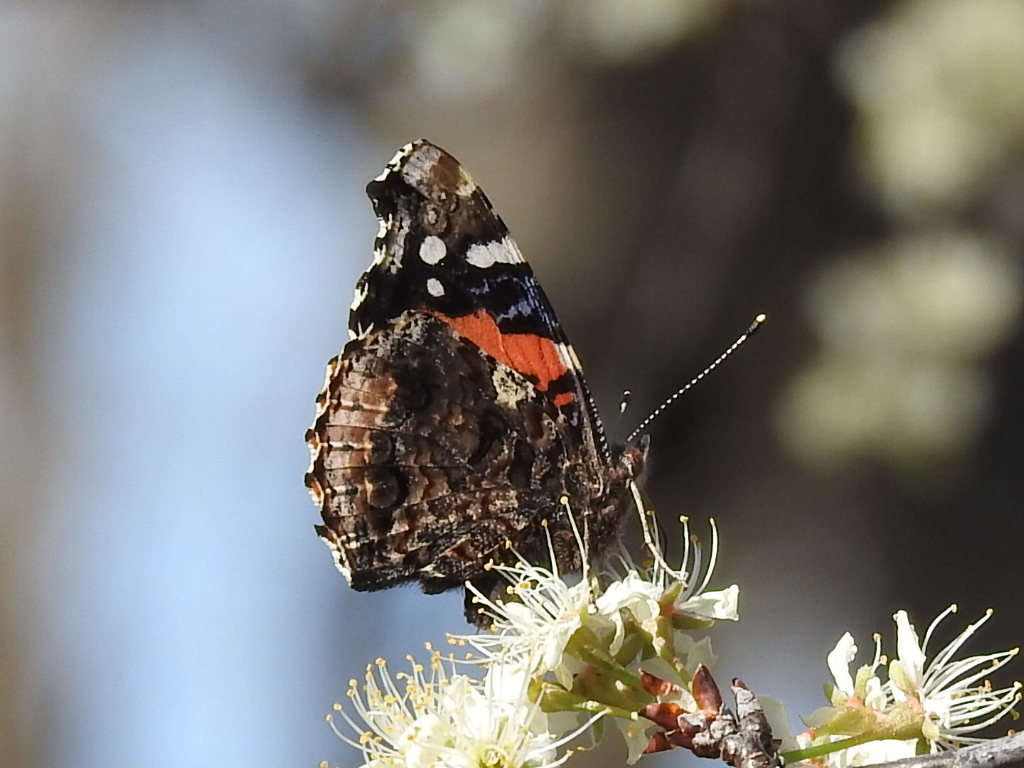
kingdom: Animalia
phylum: Arthropoda
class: Insecta
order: Lepidoptera
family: Nymphalidae
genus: Vanessa
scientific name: Vanessa atalanta
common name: Red admiral
